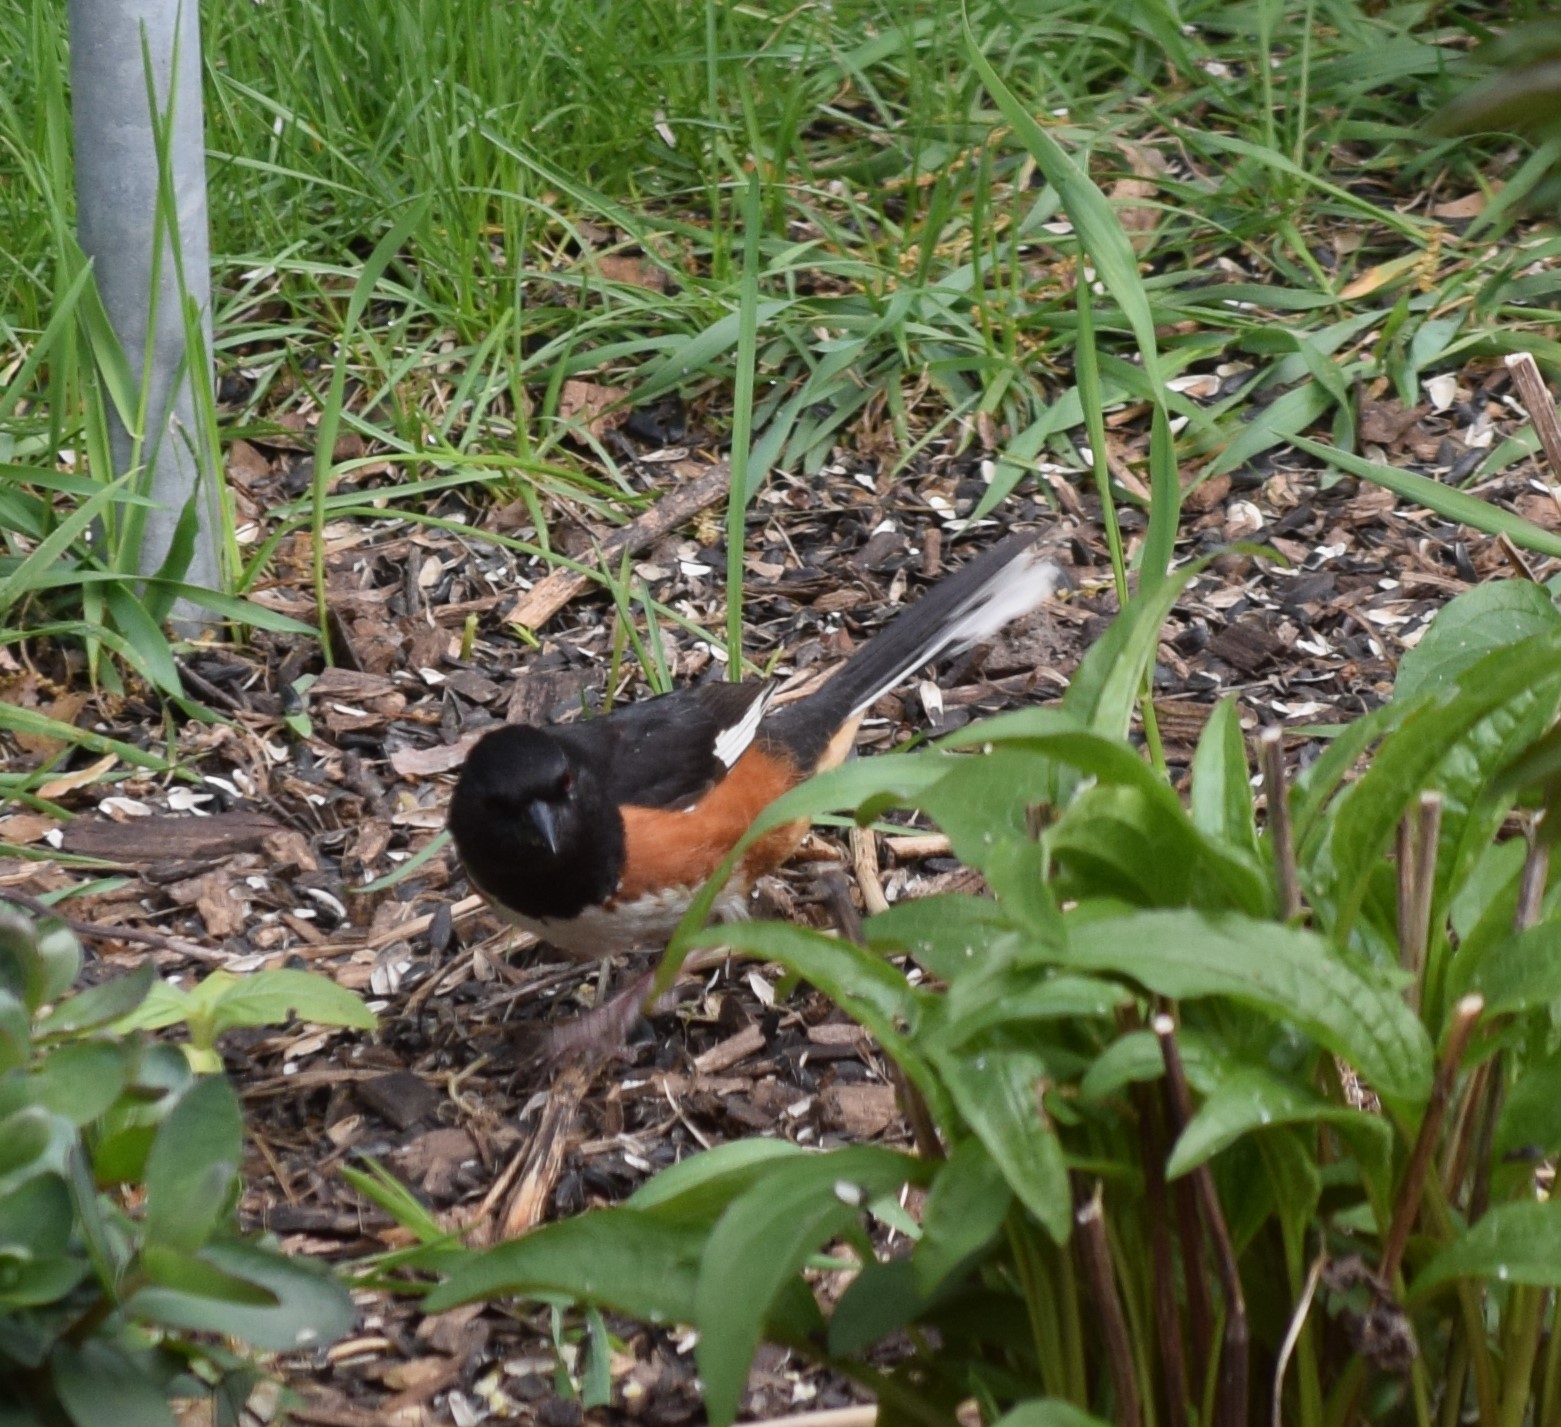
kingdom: Animalia
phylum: Chordata
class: Aves
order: Passeriformes
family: Passerellidae
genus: Pipilo
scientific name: Pipilo erythrophthalmus
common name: Eastern towhee
